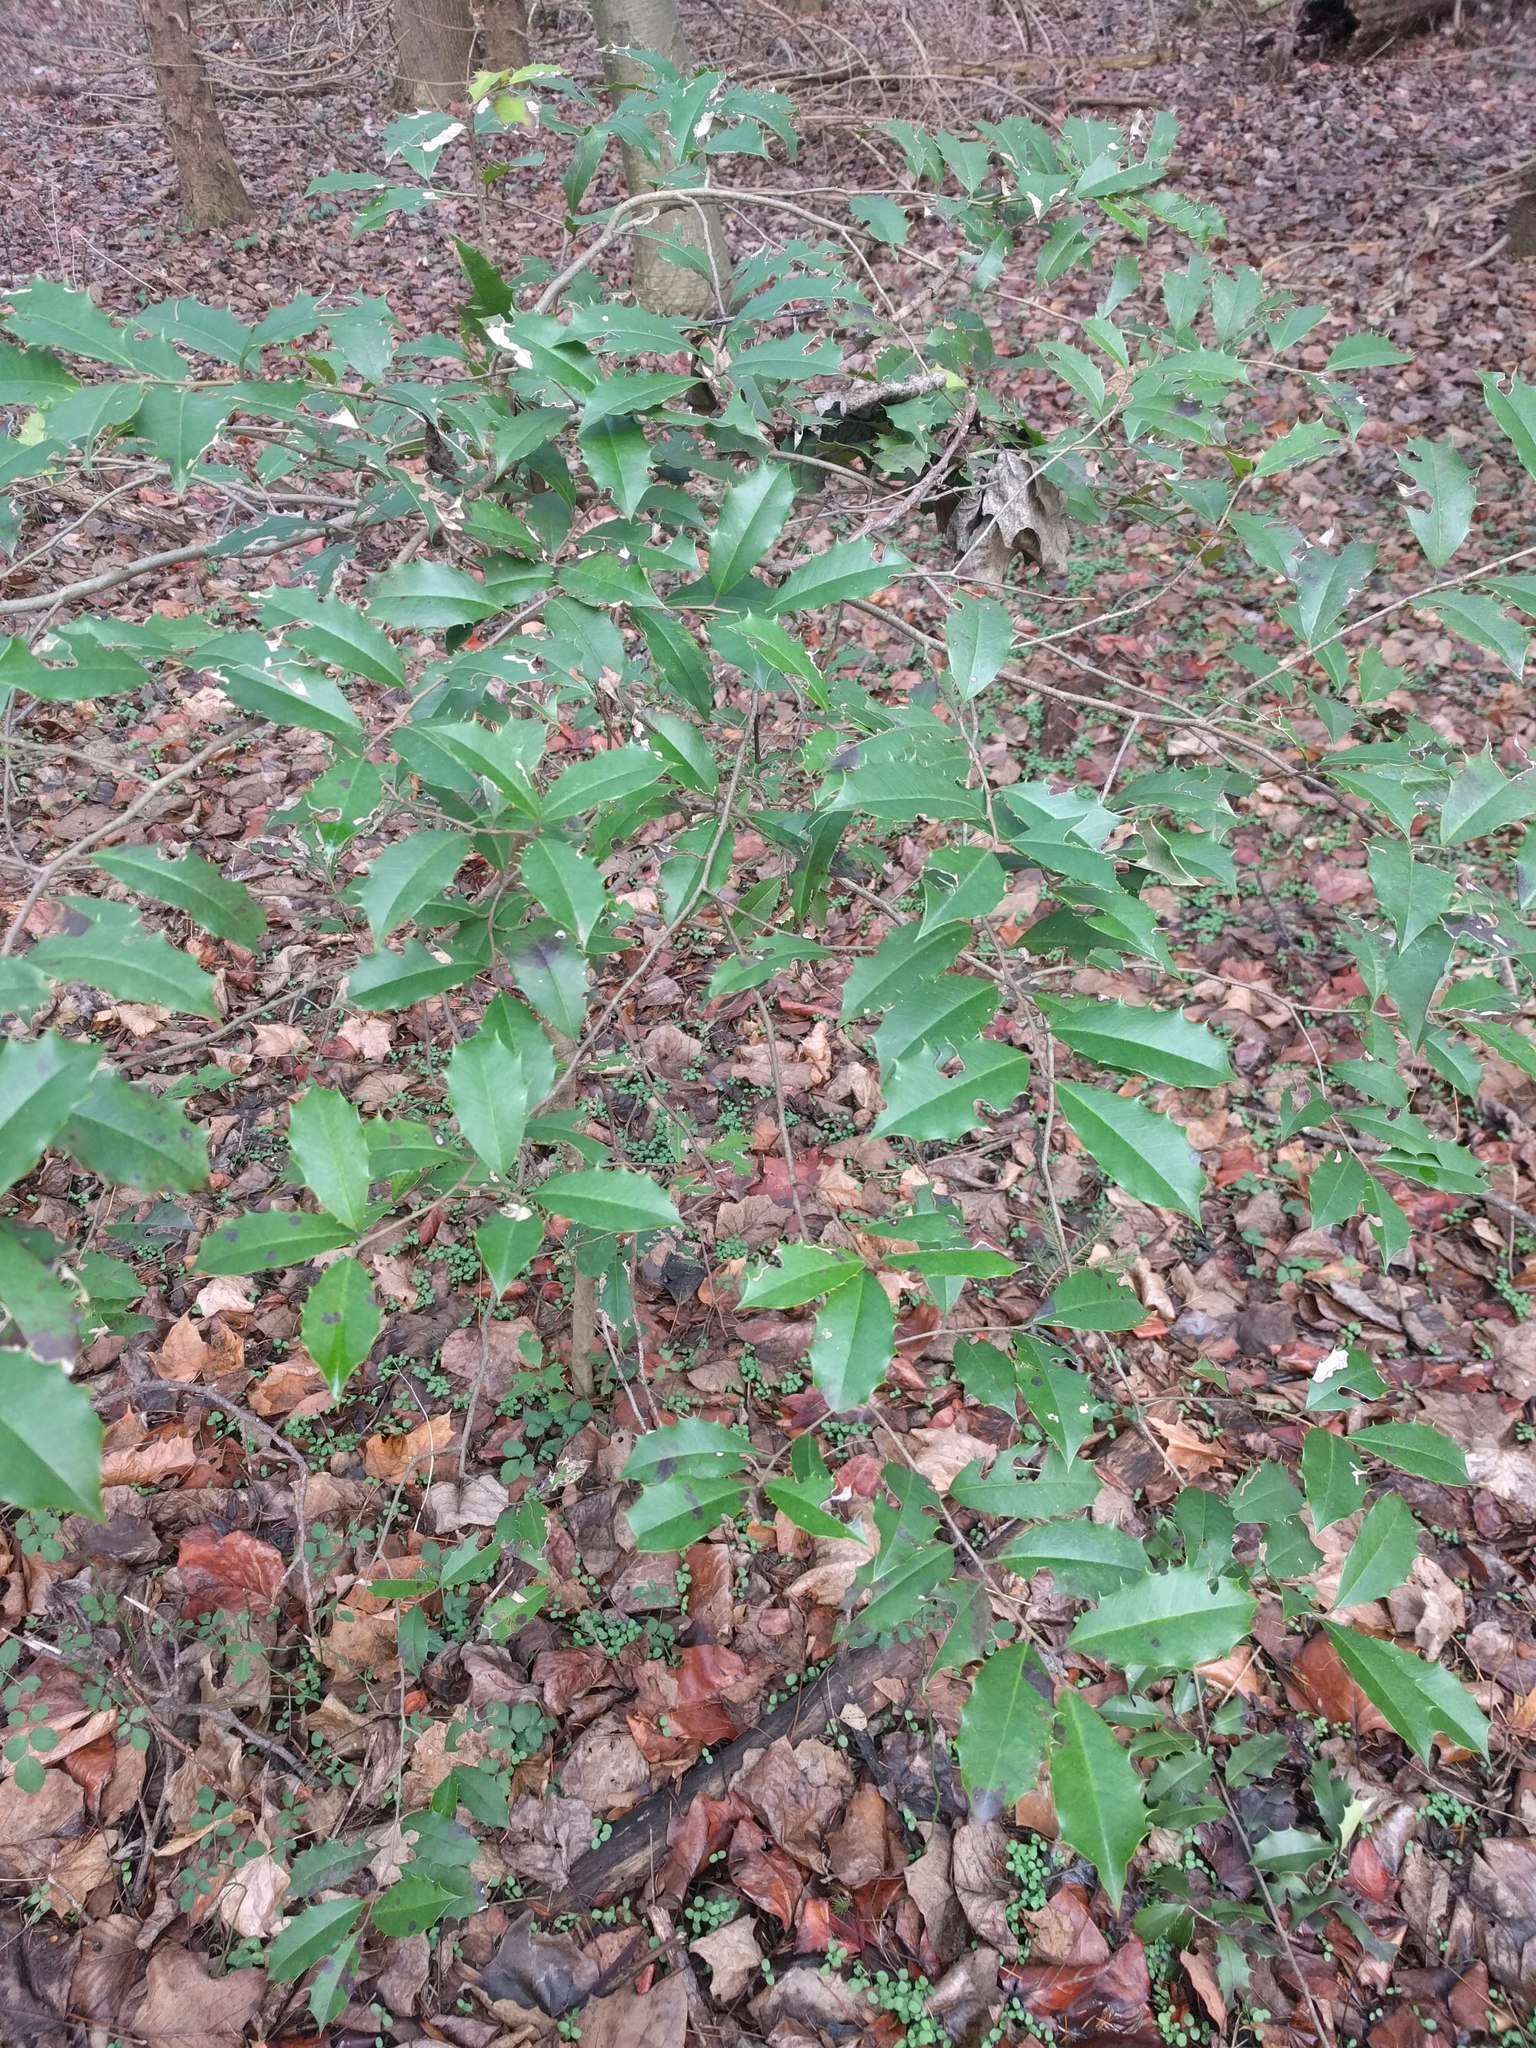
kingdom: Plantae
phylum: Tracheophyta
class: Magnoliopsida
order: Aquifoliales
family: Aquifoliaceae
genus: Ilex
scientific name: Ilex opaca
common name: American holly
